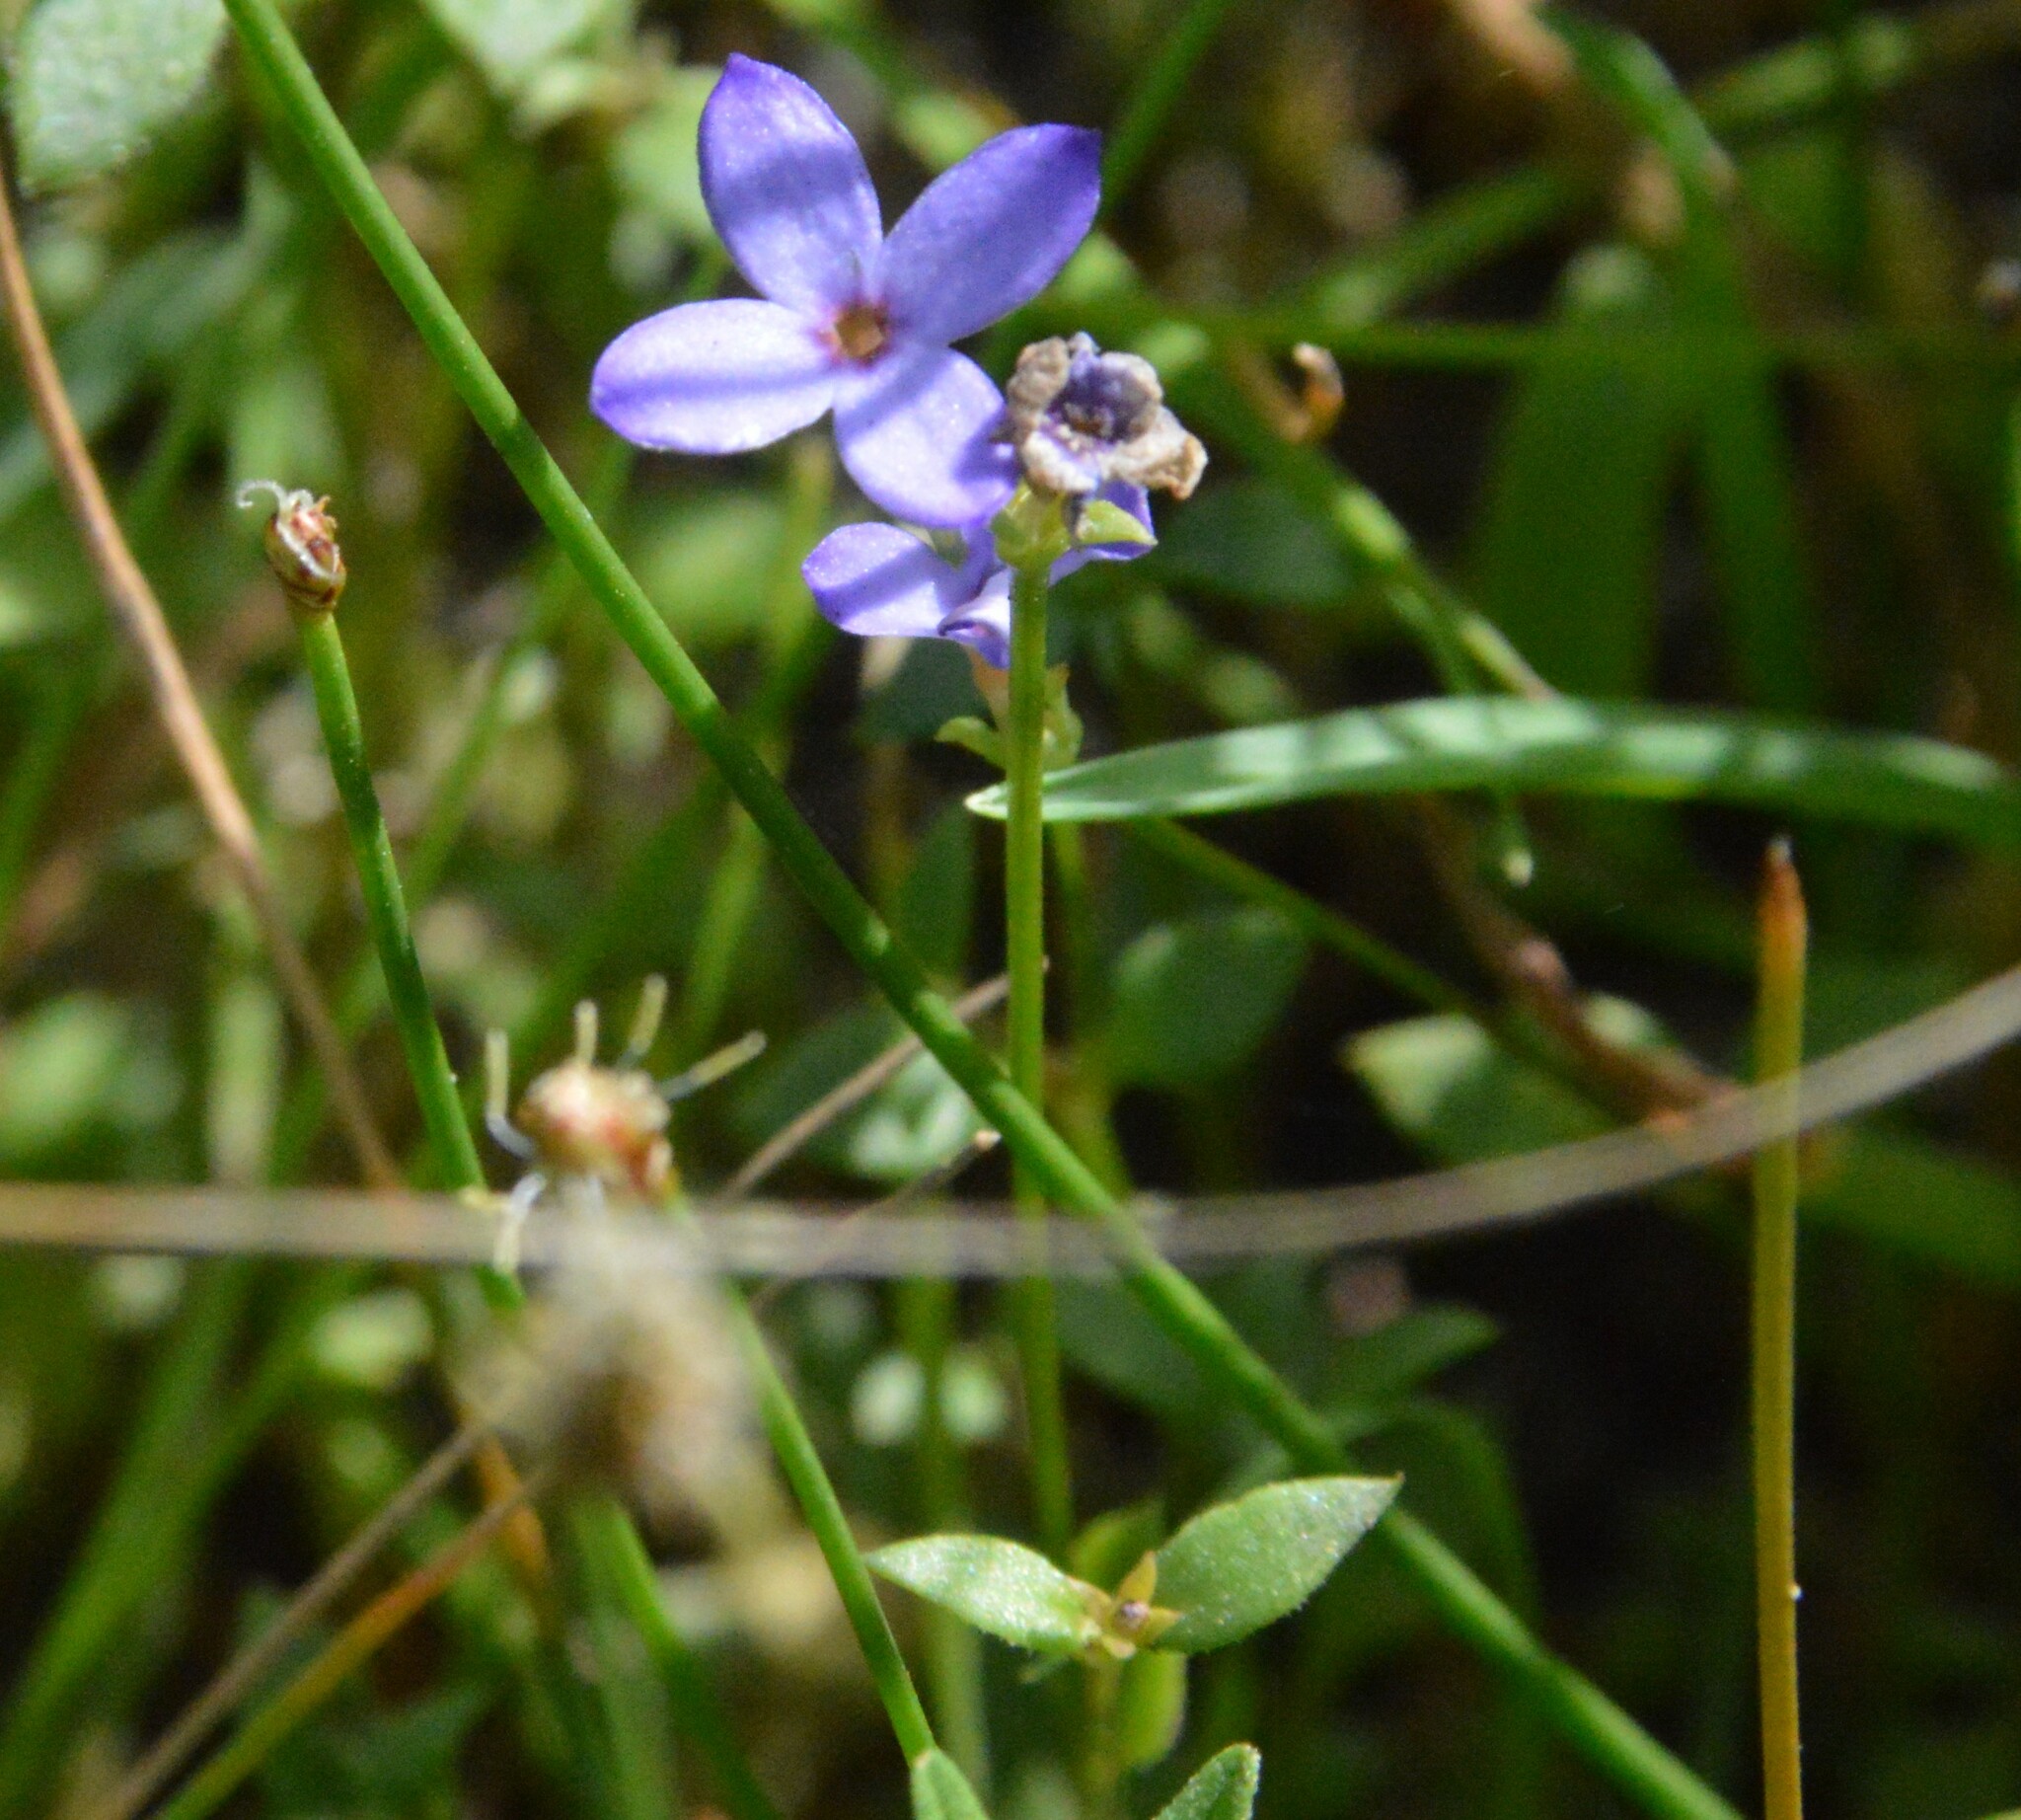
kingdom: Plantae
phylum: Tracheophyta
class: Magnoliopsida
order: Gentianales
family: Rubiaceae
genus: Houstonia
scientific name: Houstonia pusilla
